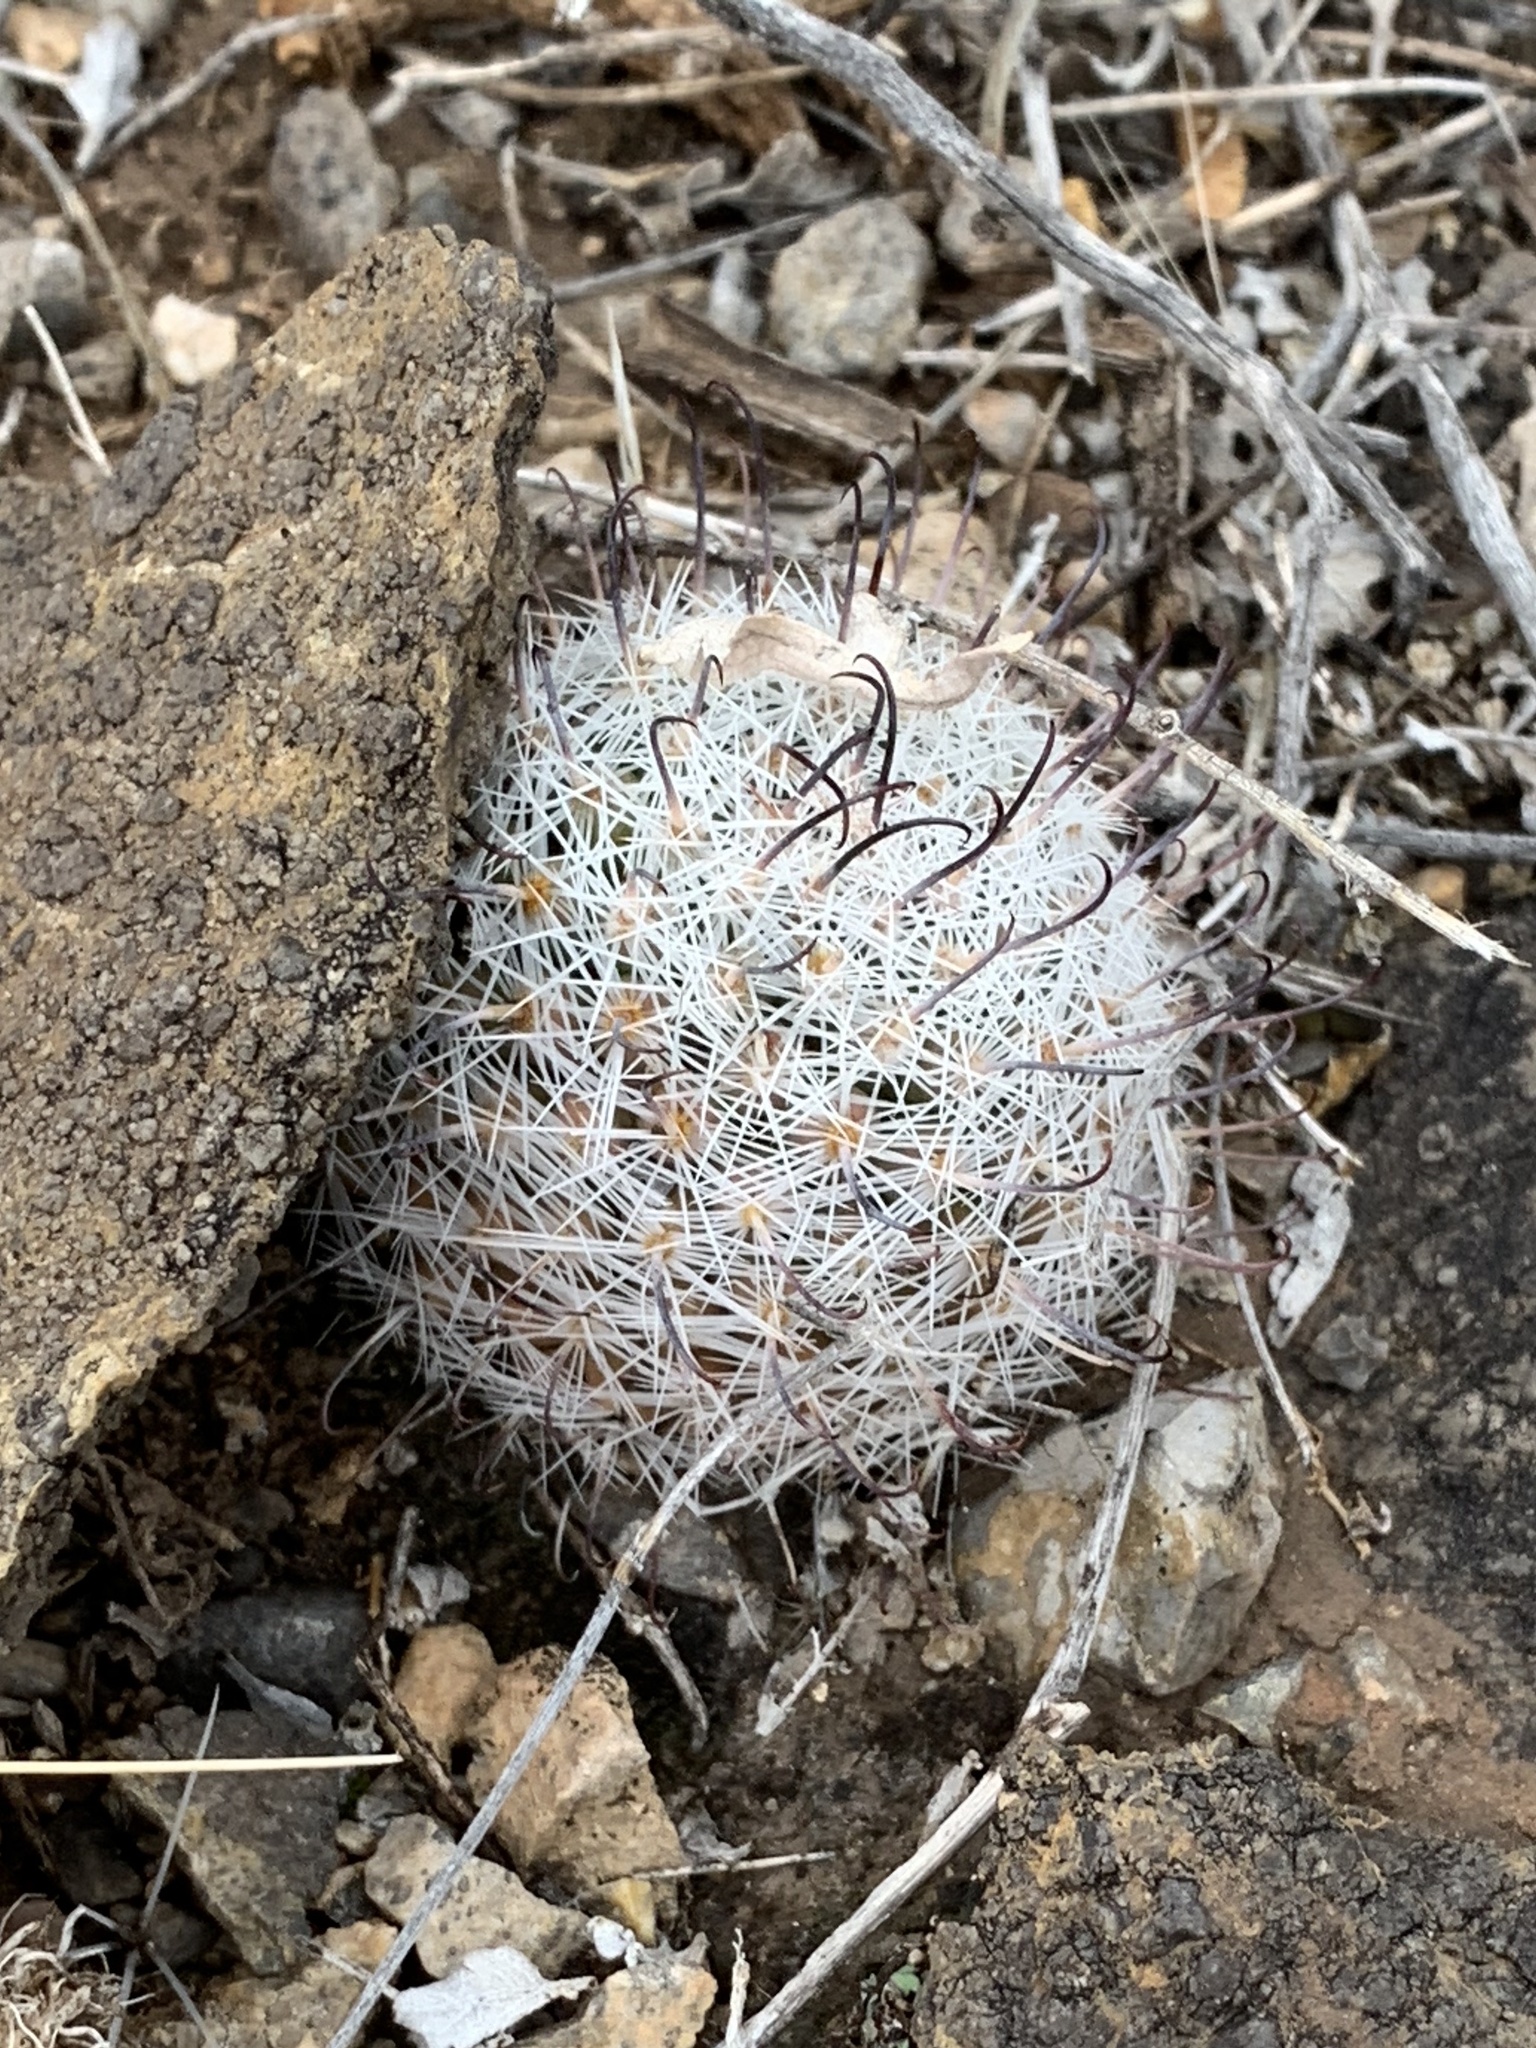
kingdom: Plantae
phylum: Tracheophyta
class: Magnoliopsida
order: Caryophyllales
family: Cactaceae
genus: Cochemiea
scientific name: Cochemiea grahamii
